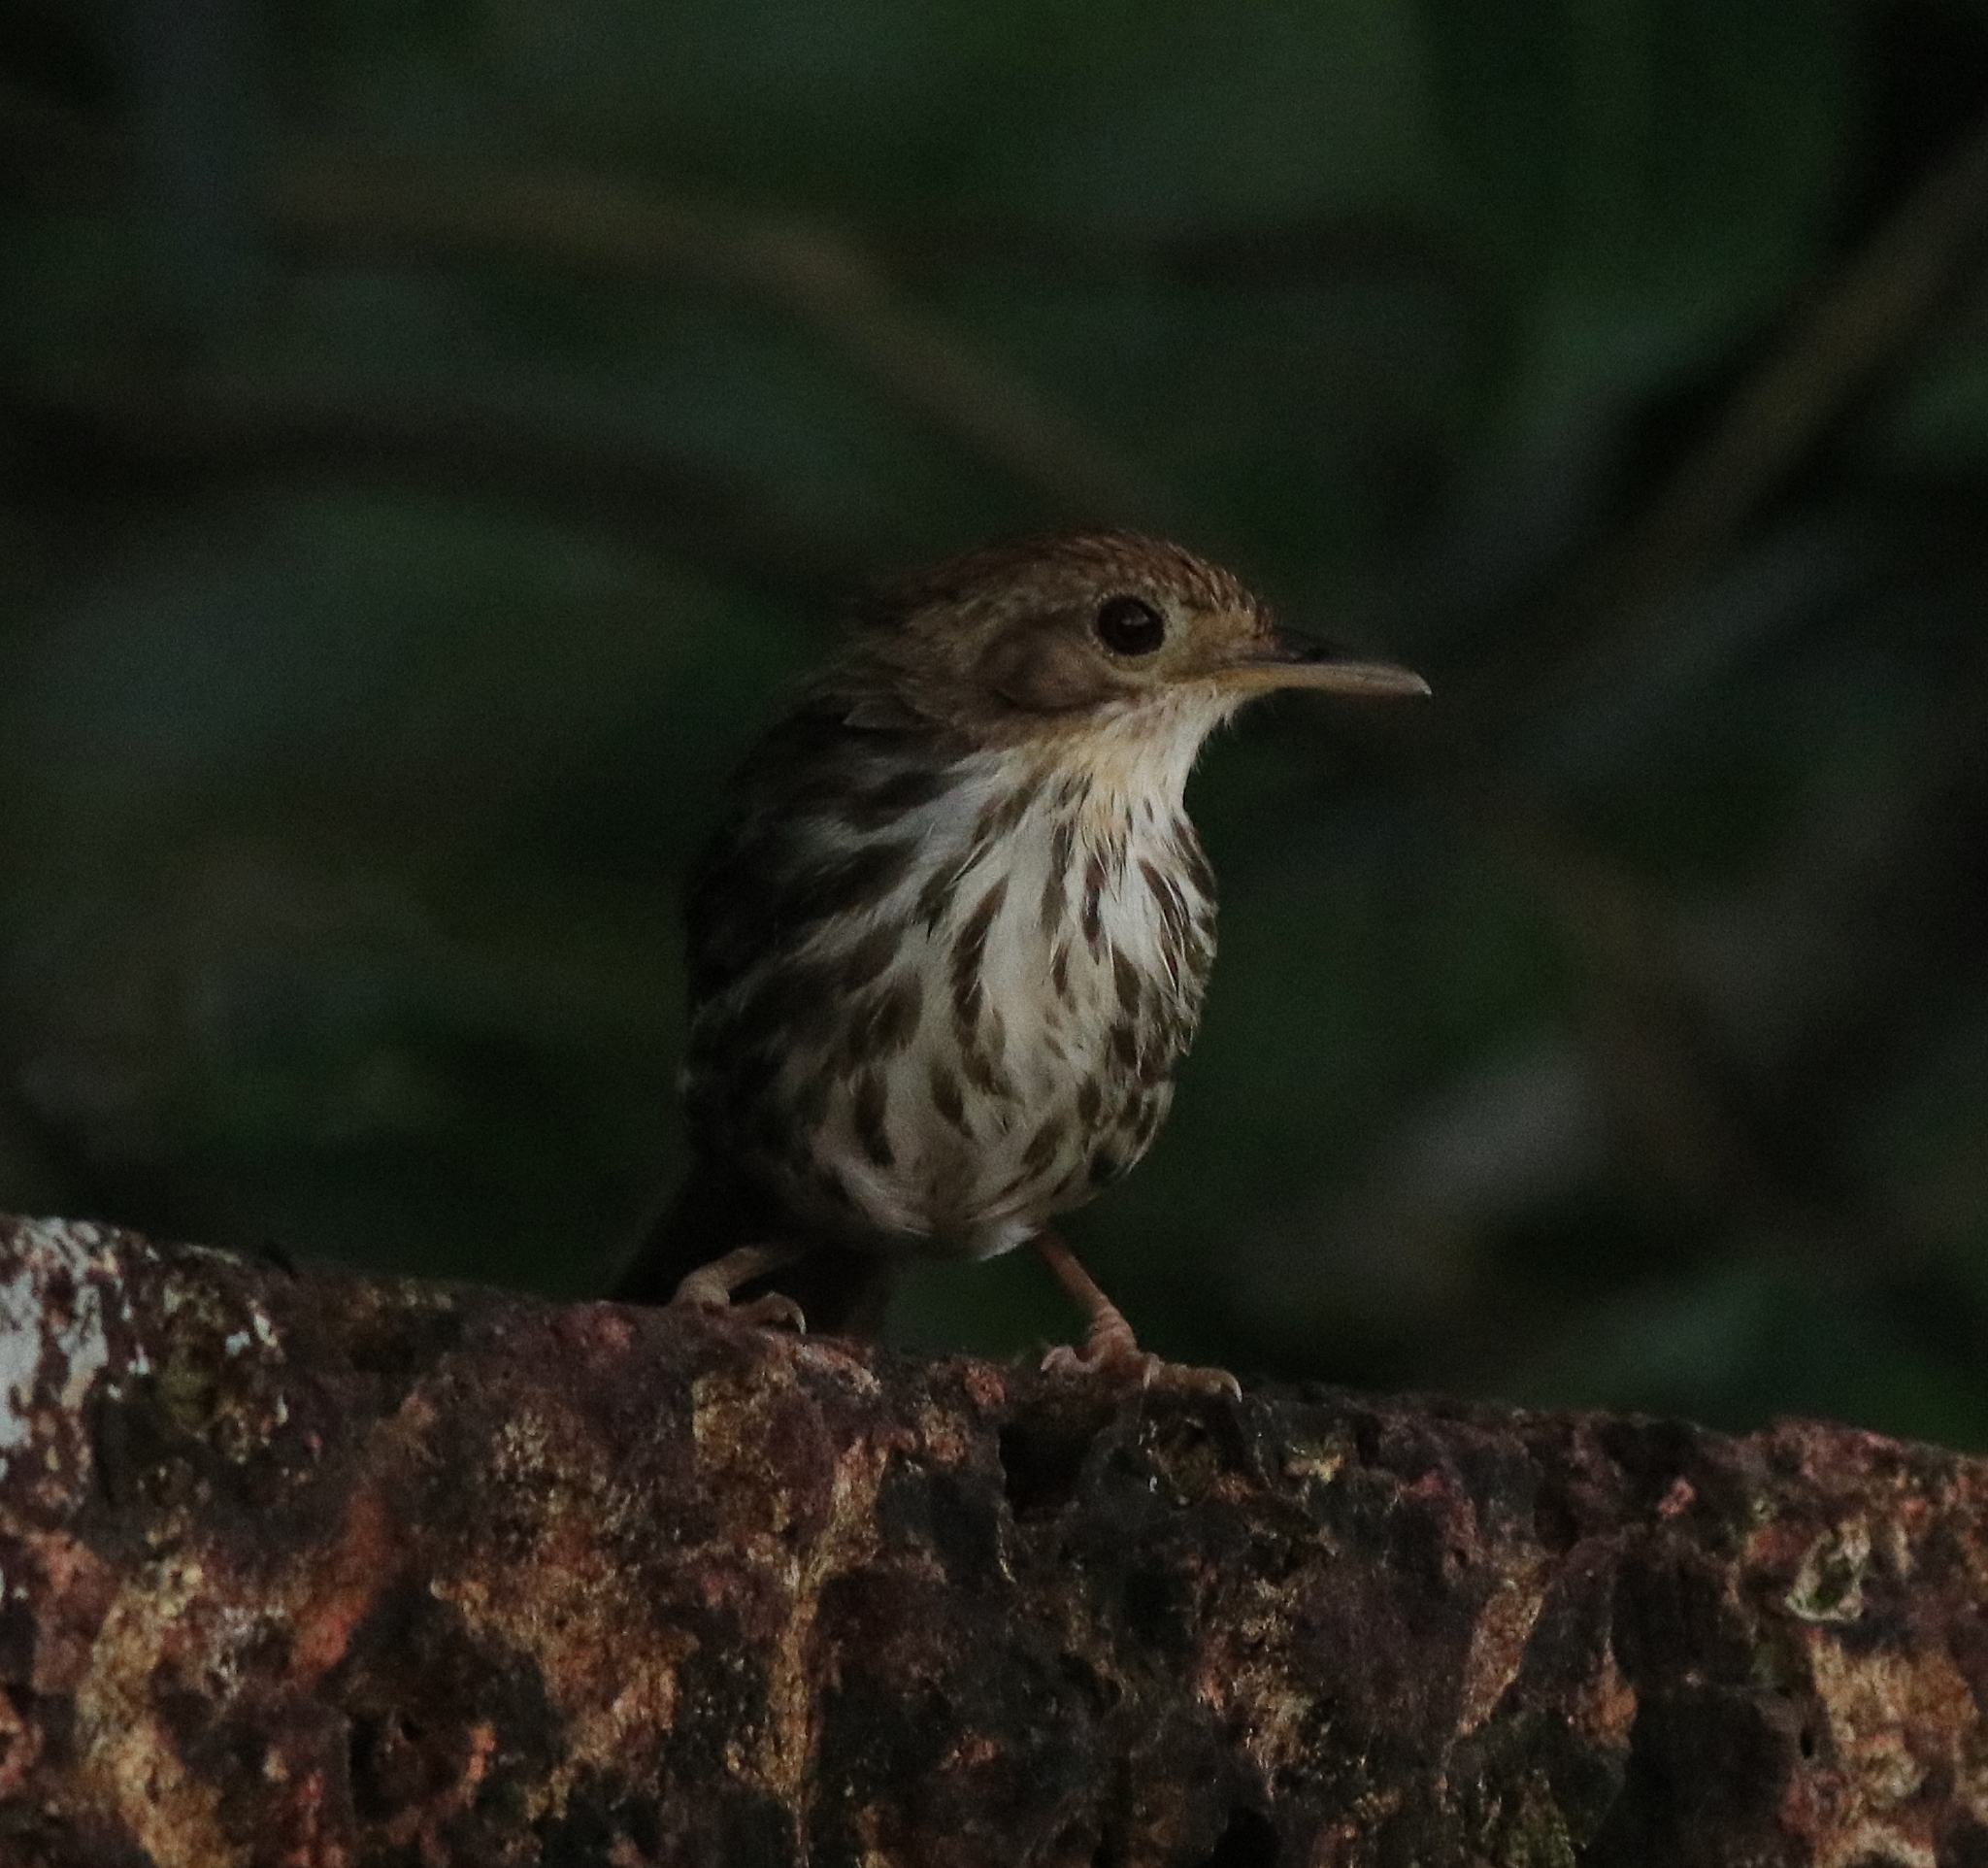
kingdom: Animalia
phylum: Chordata
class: Aves
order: Passeriformes
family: Pellorneidae
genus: Pellorneum
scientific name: Pellorneum ruficeps
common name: Puff-throated babbler
